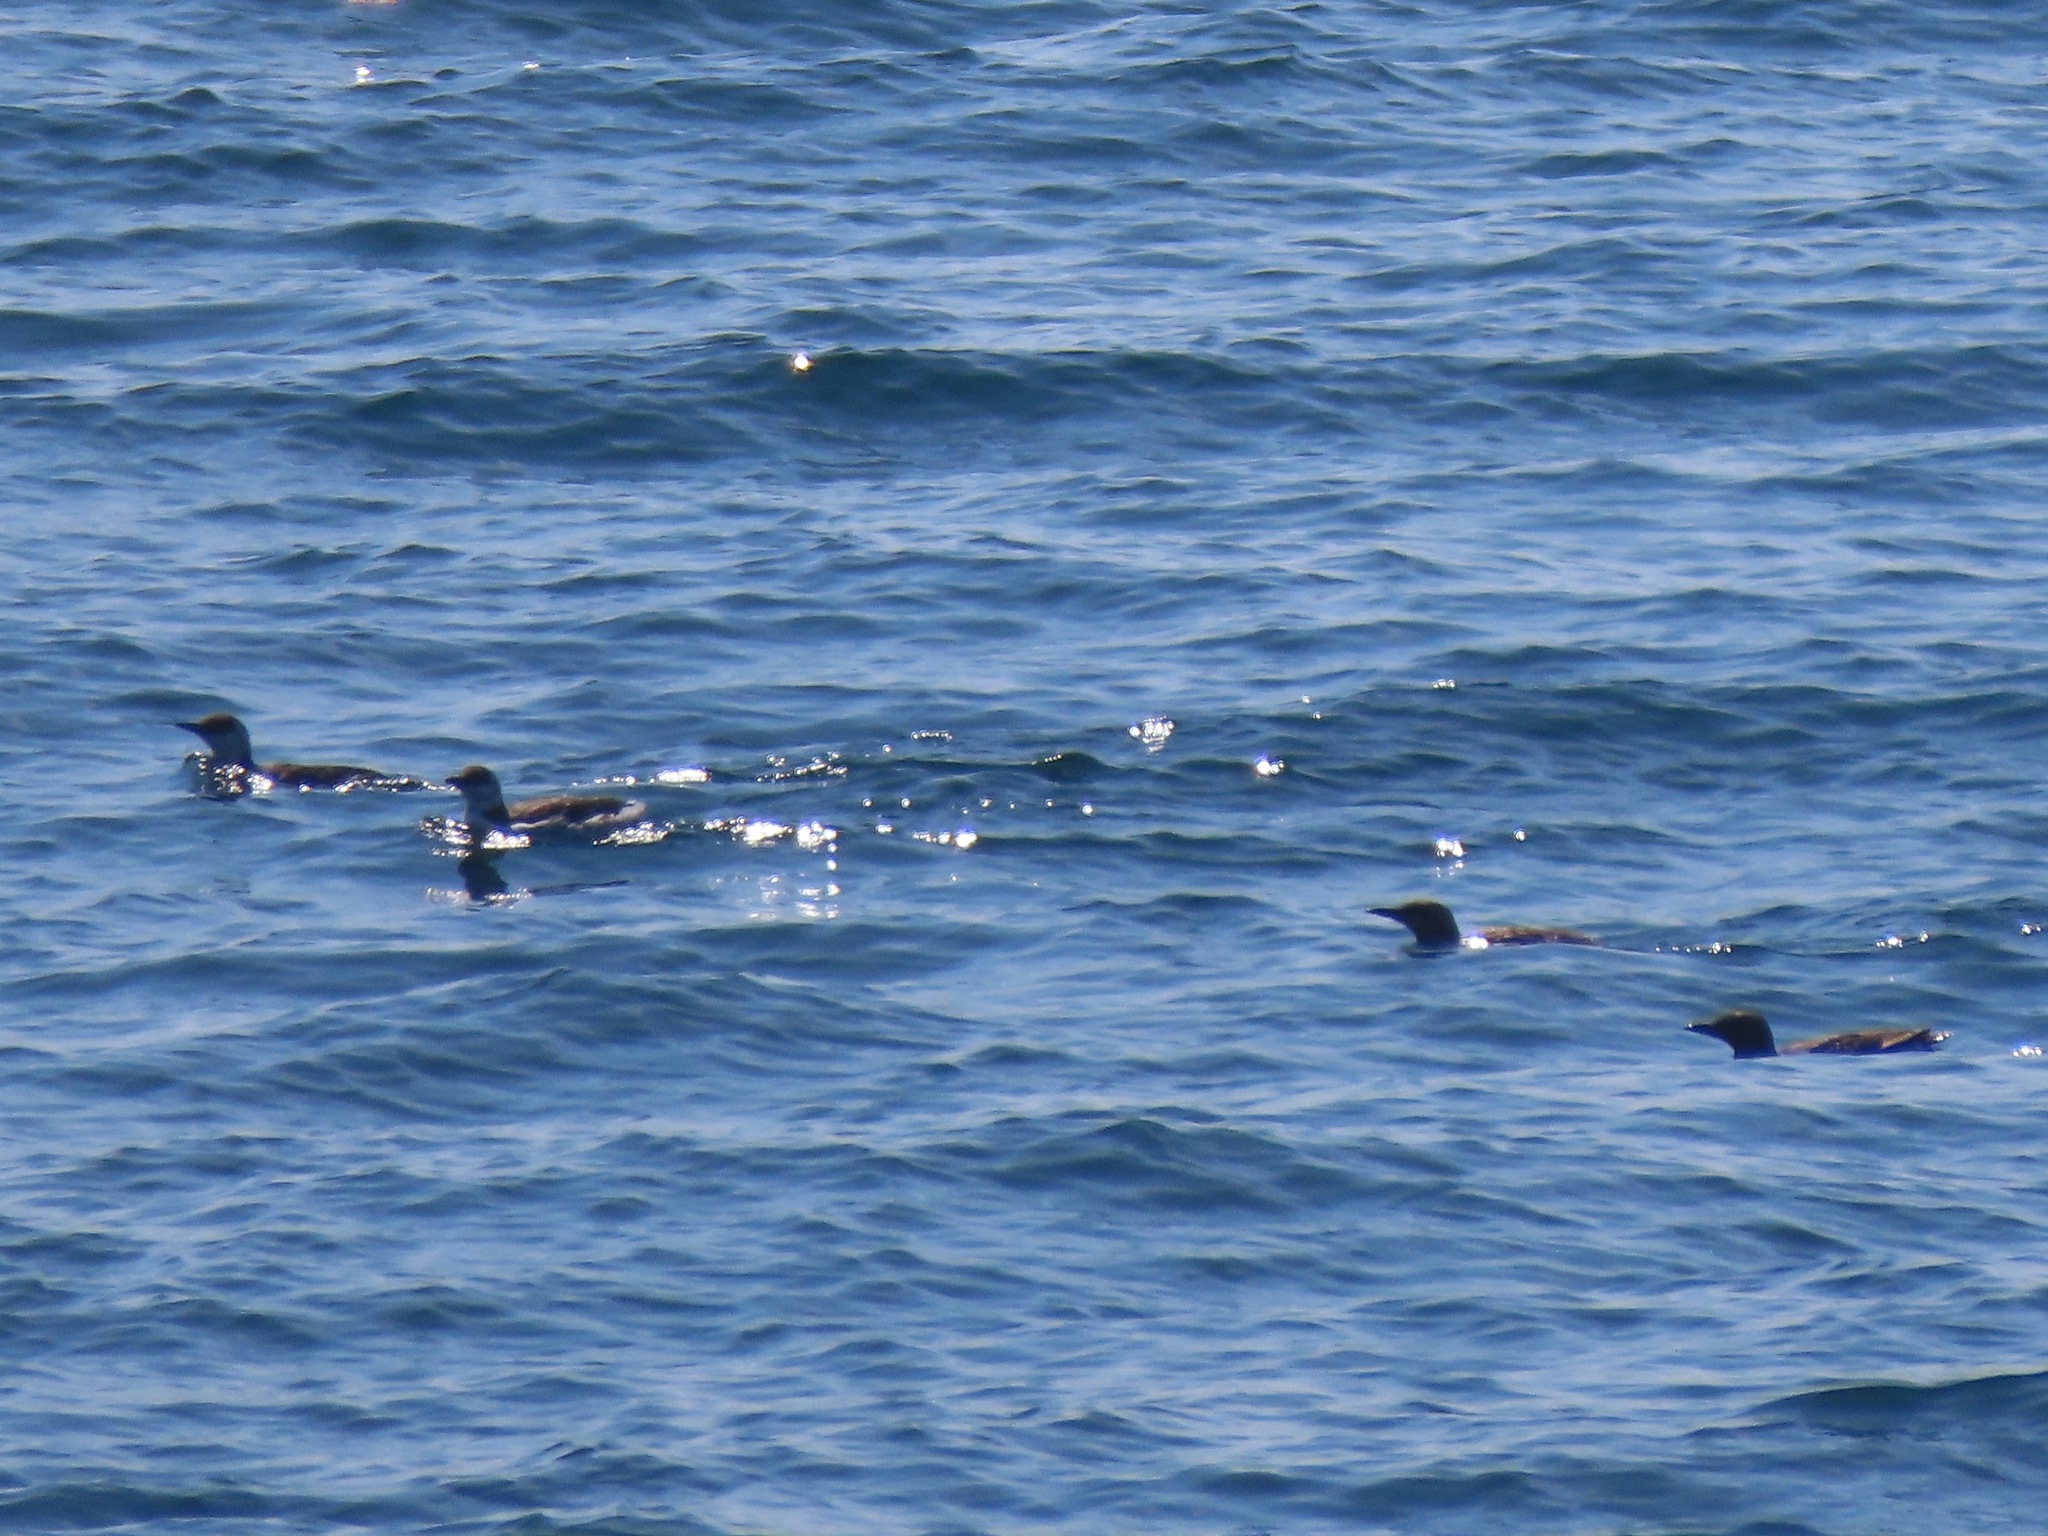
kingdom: Animalia
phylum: Chordata
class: Aves
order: Charadriiformes
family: Alcidae
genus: Uria
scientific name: Uria aalge
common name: Common murre
